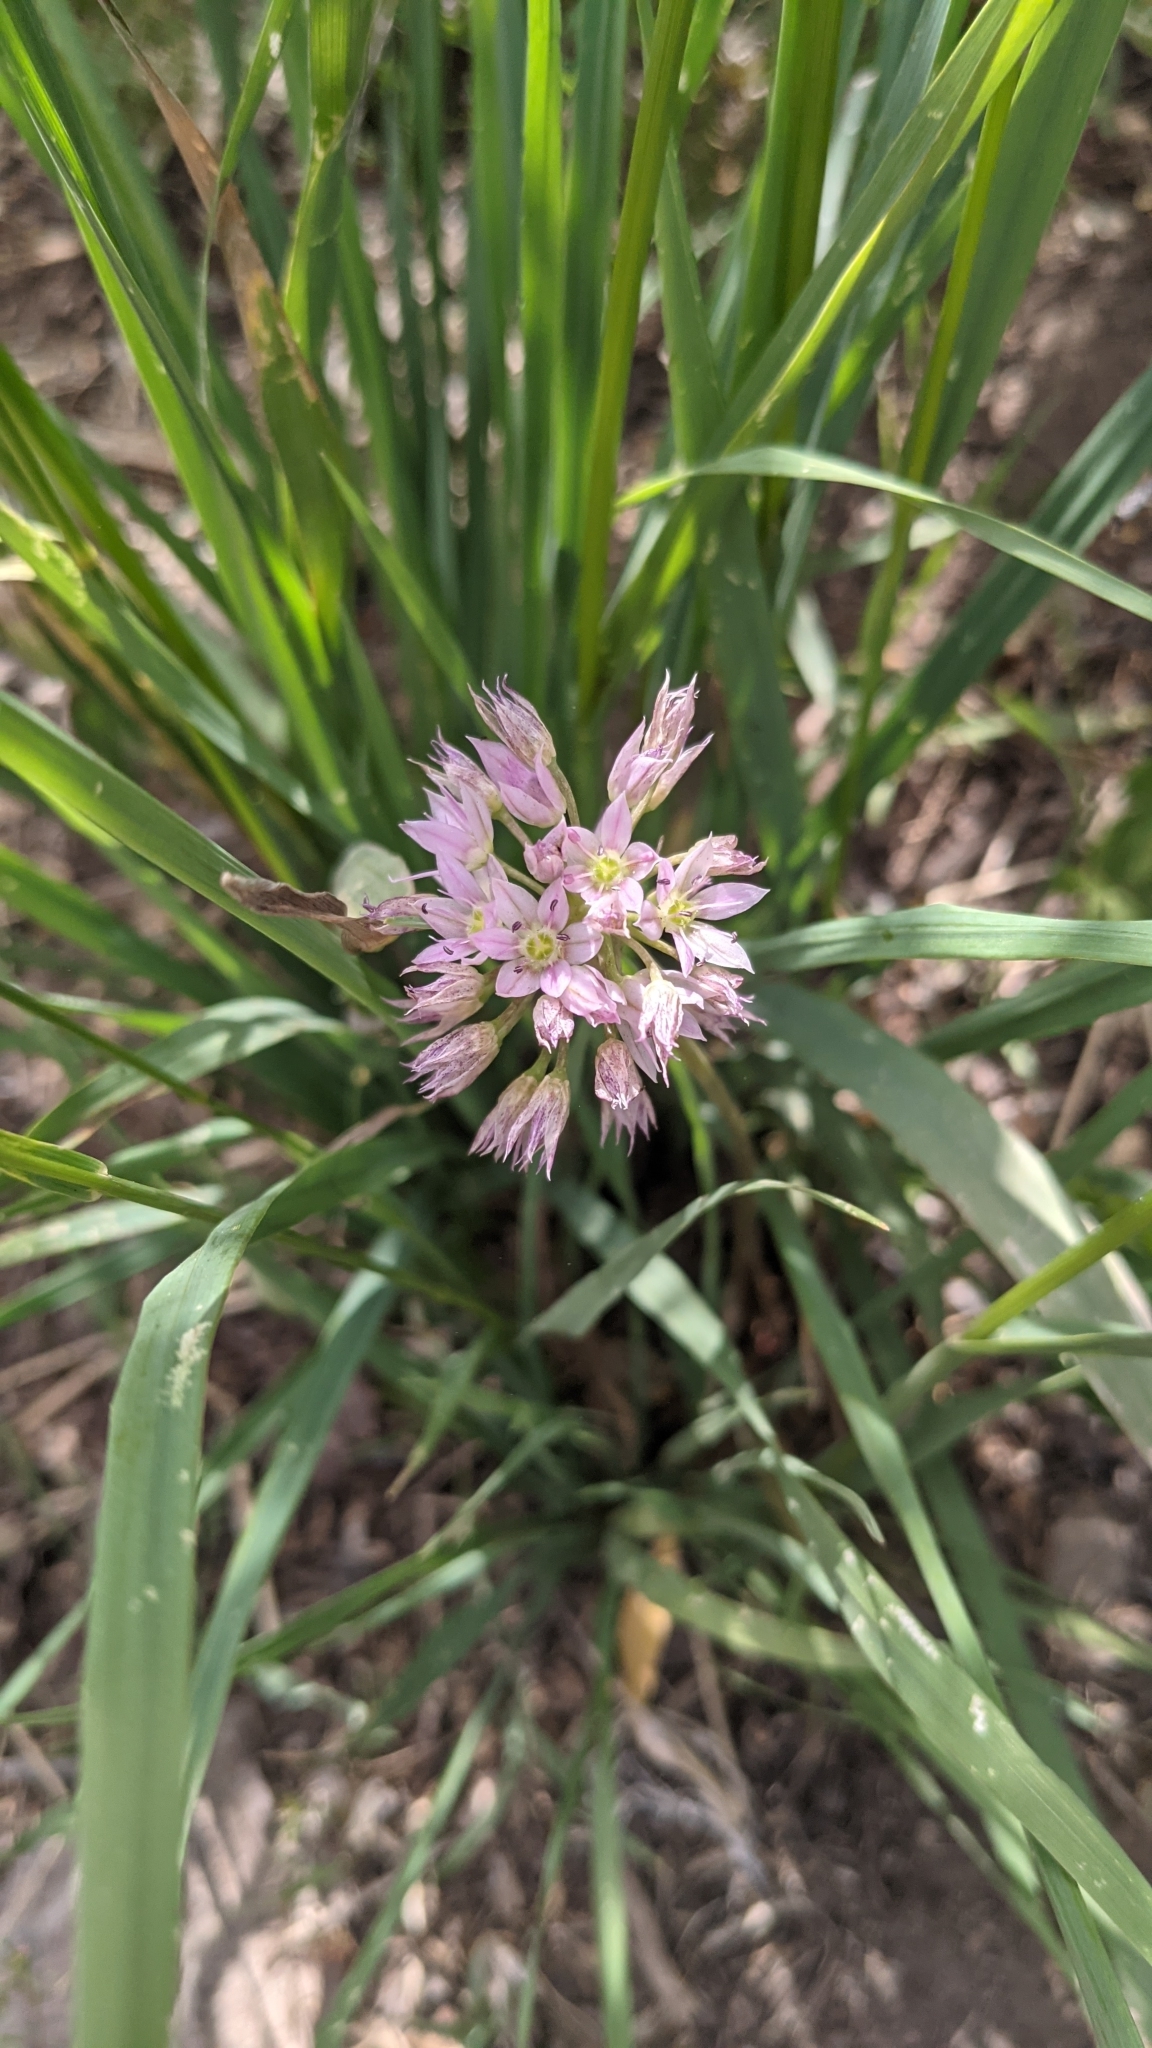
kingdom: Plantae
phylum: Tracheophyta
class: Liliopsida
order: Asparagales
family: Amaryllidaceae
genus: Allium
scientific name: Allium bisceptrum
